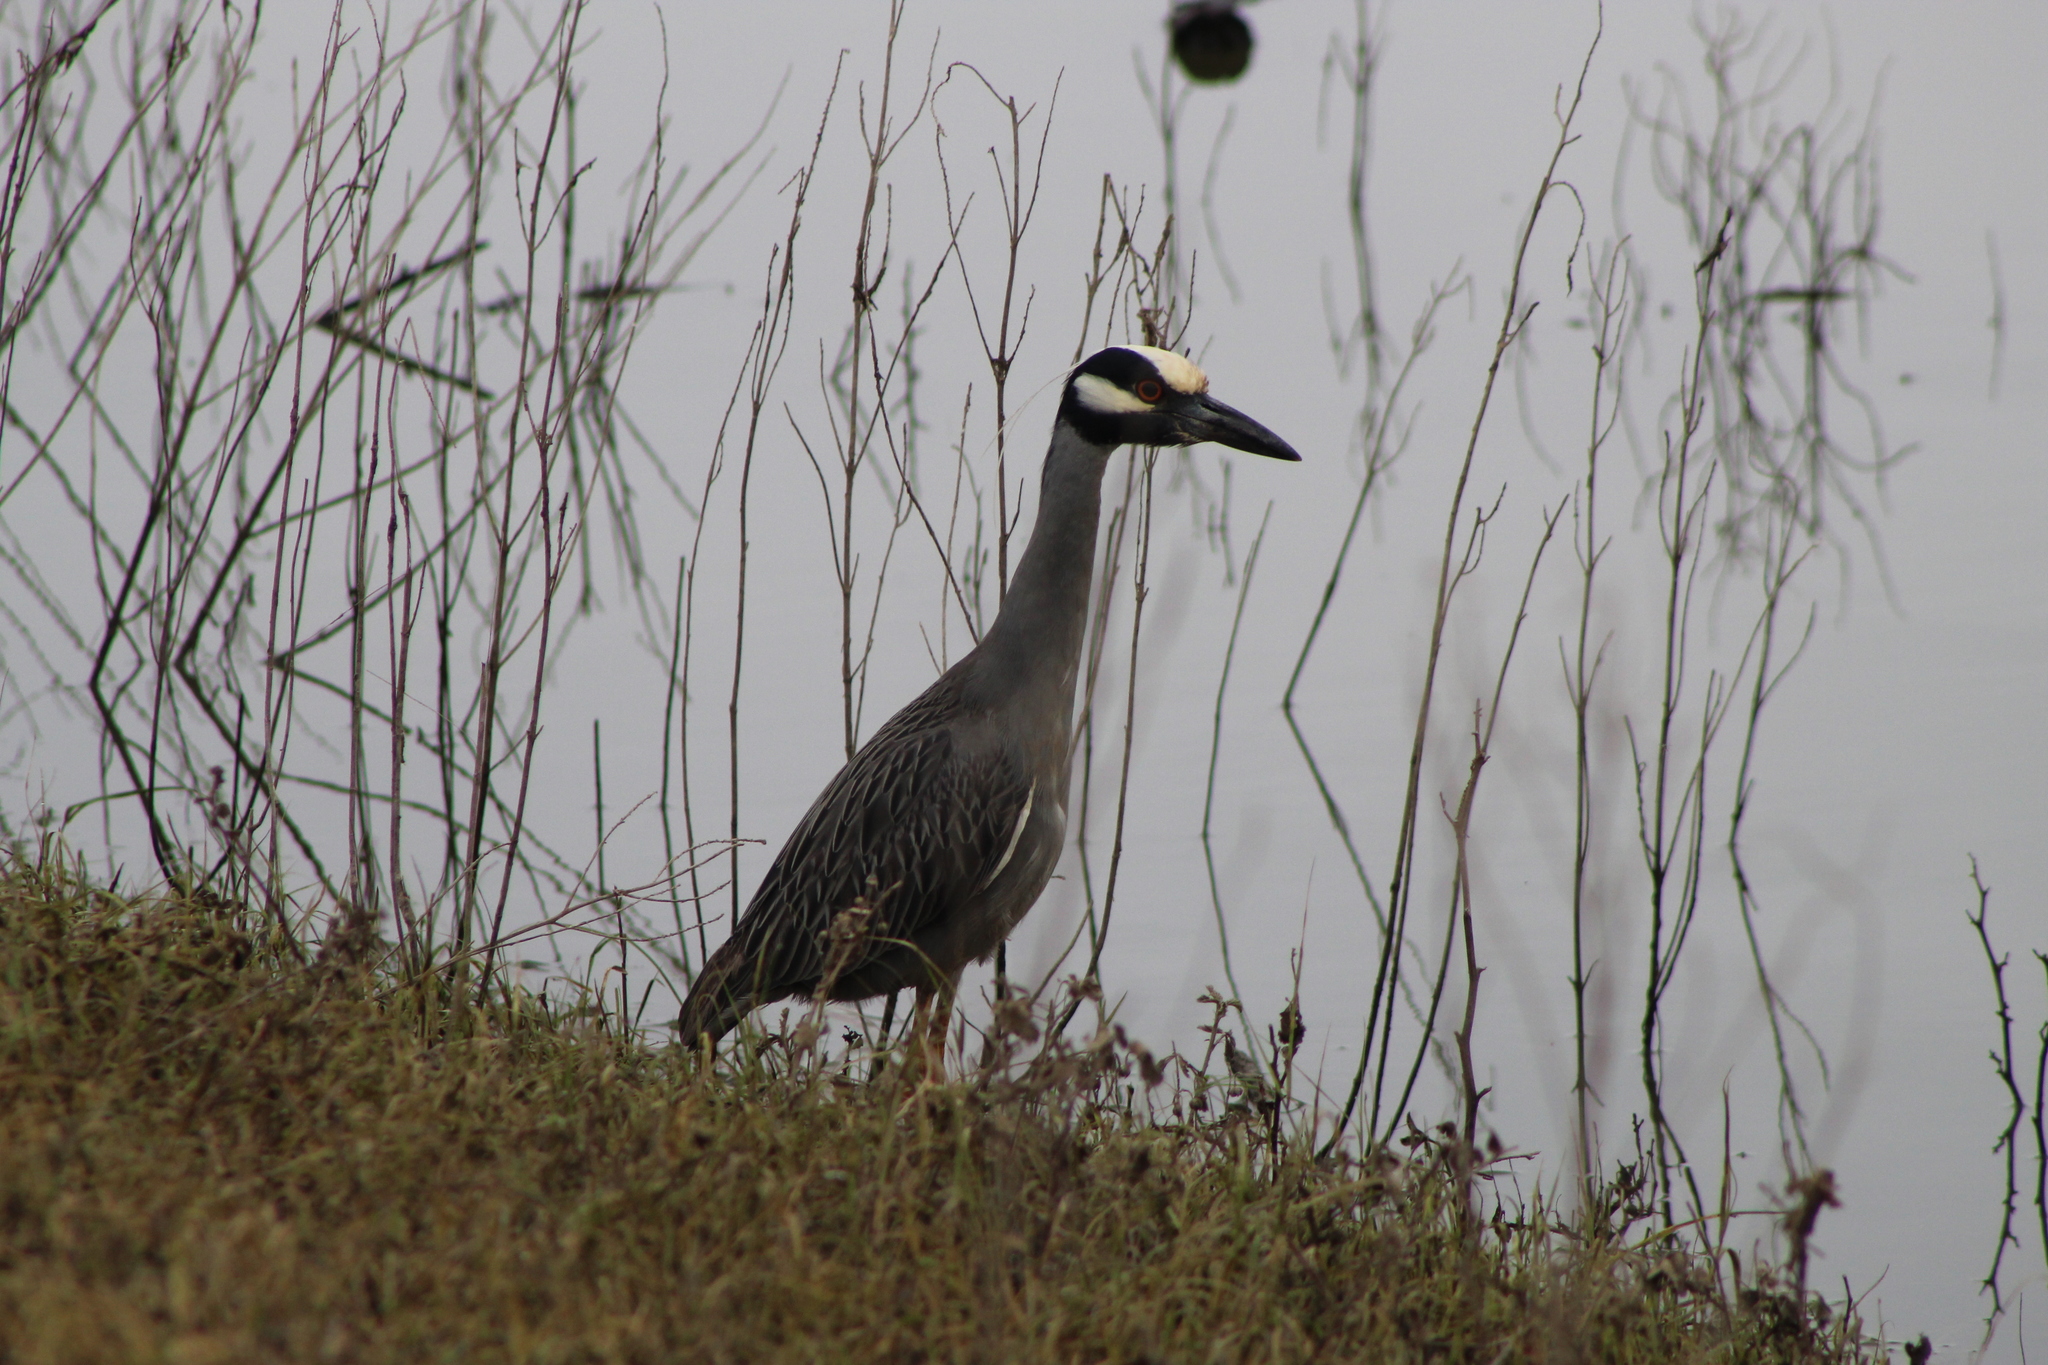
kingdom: Animalia
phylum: Chordata
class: Aves
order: Pelecaniformes
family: Ardeidae
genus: Nyctanassa
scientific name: Nyctanassa violacea
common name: Yellow-crowned night heron
